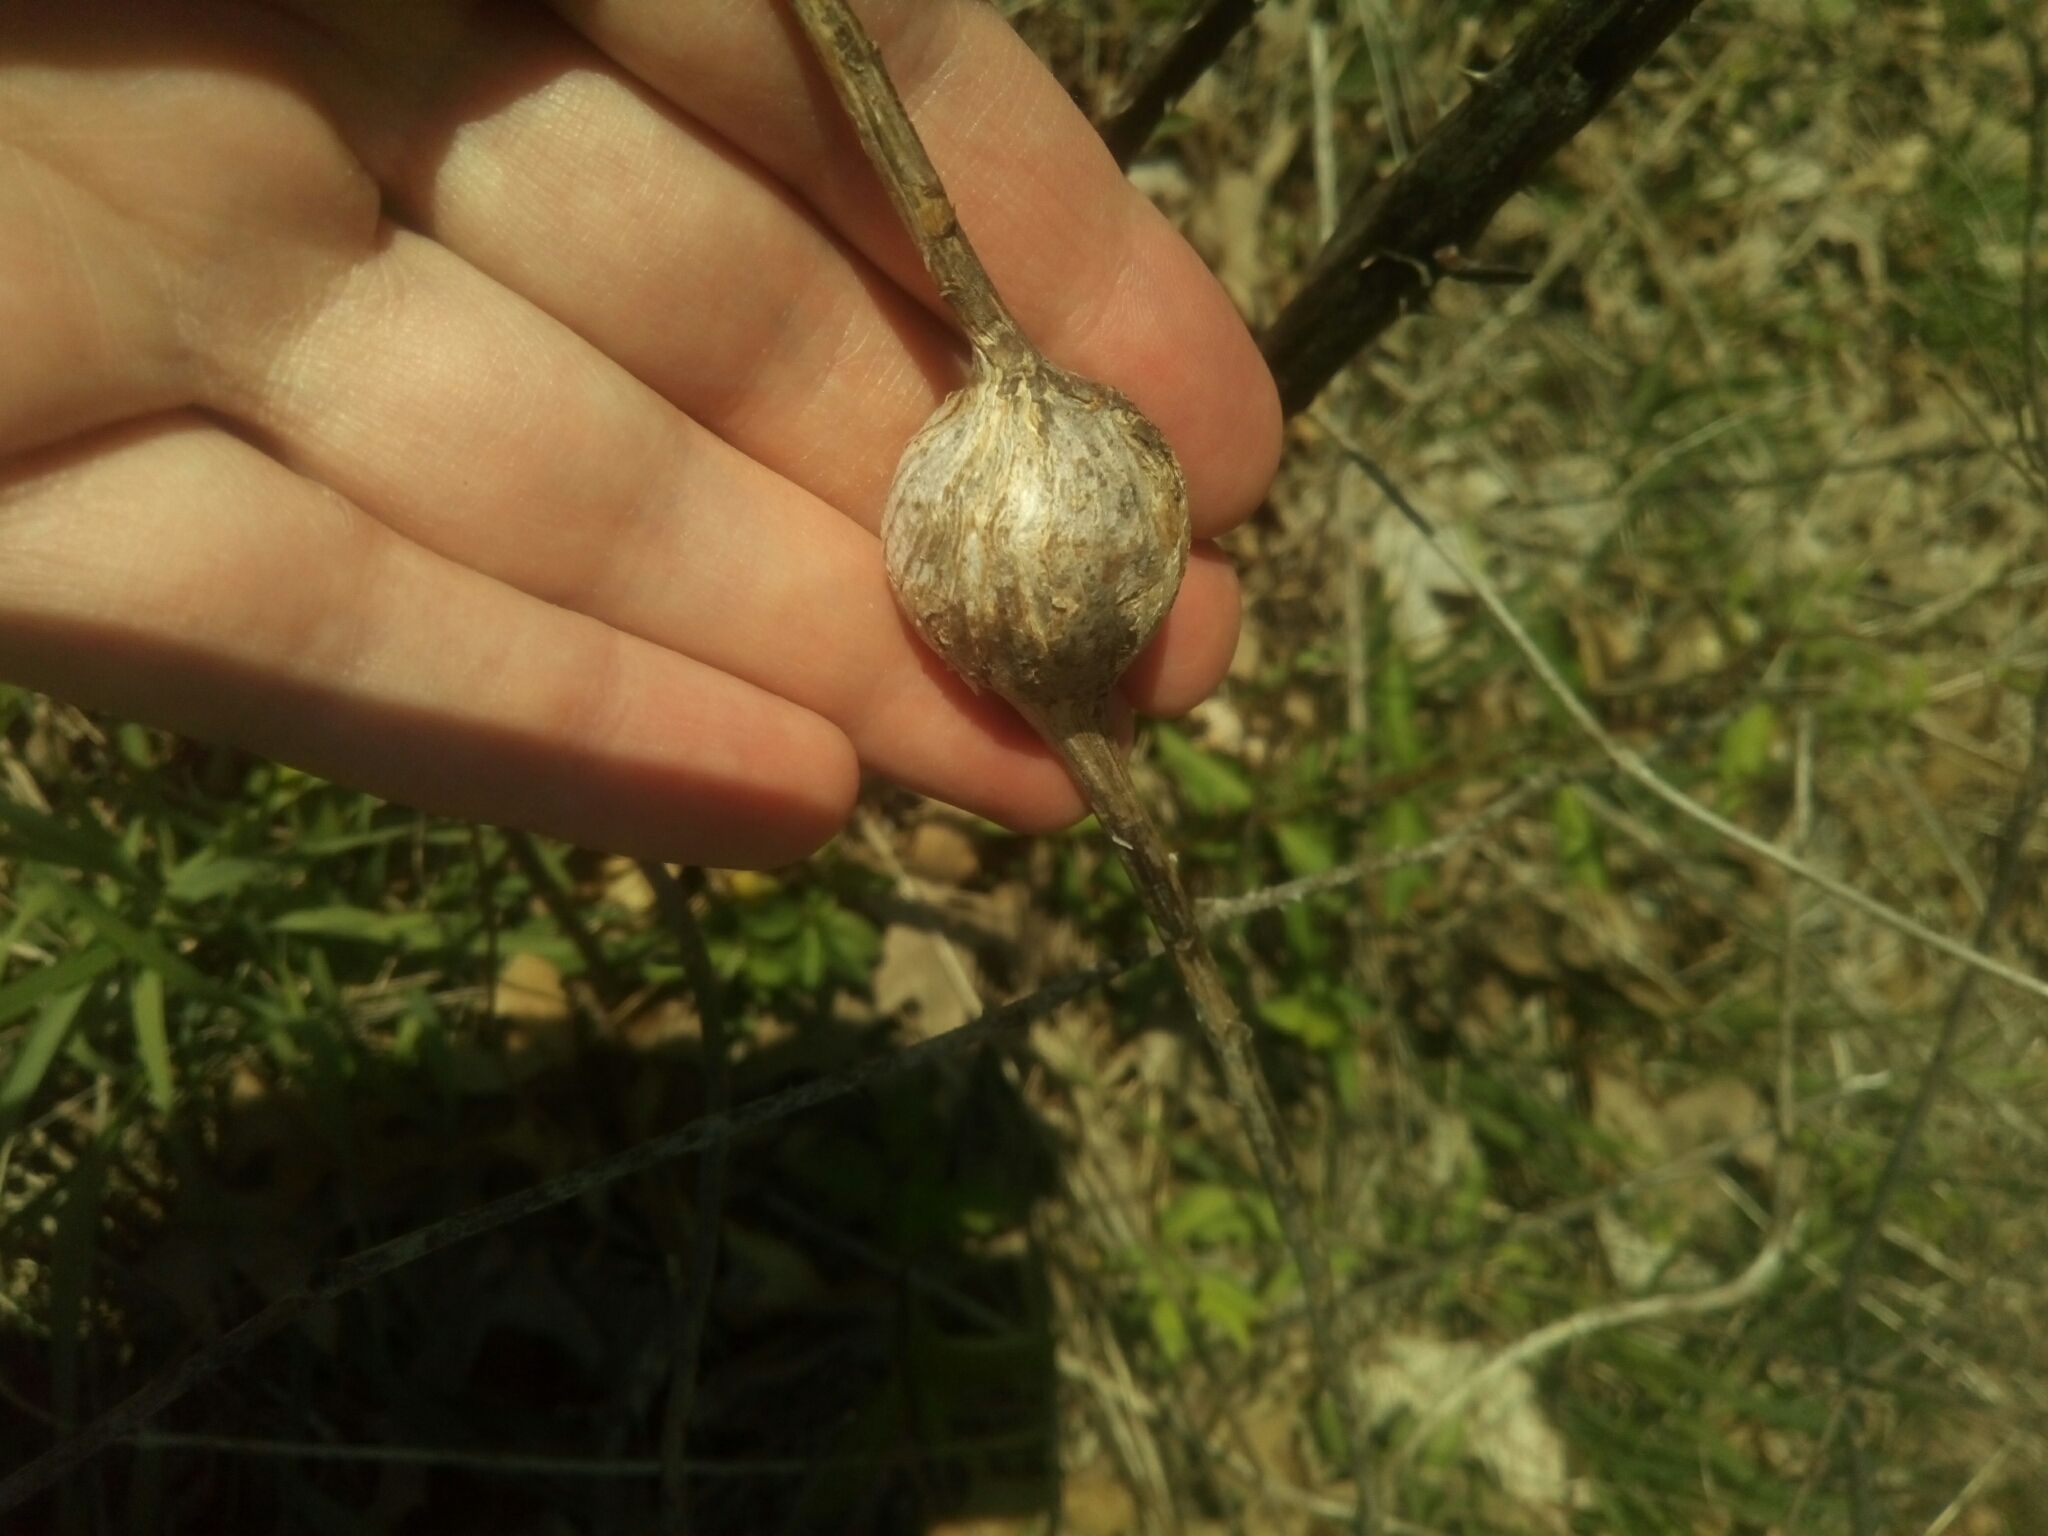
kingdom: Animalia
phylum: Arthropoda
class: Insecta
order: Diptera
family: Tephritidae
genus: Eurosta
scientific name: Eurosta solidaginis
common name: Goldenrod gall fly
